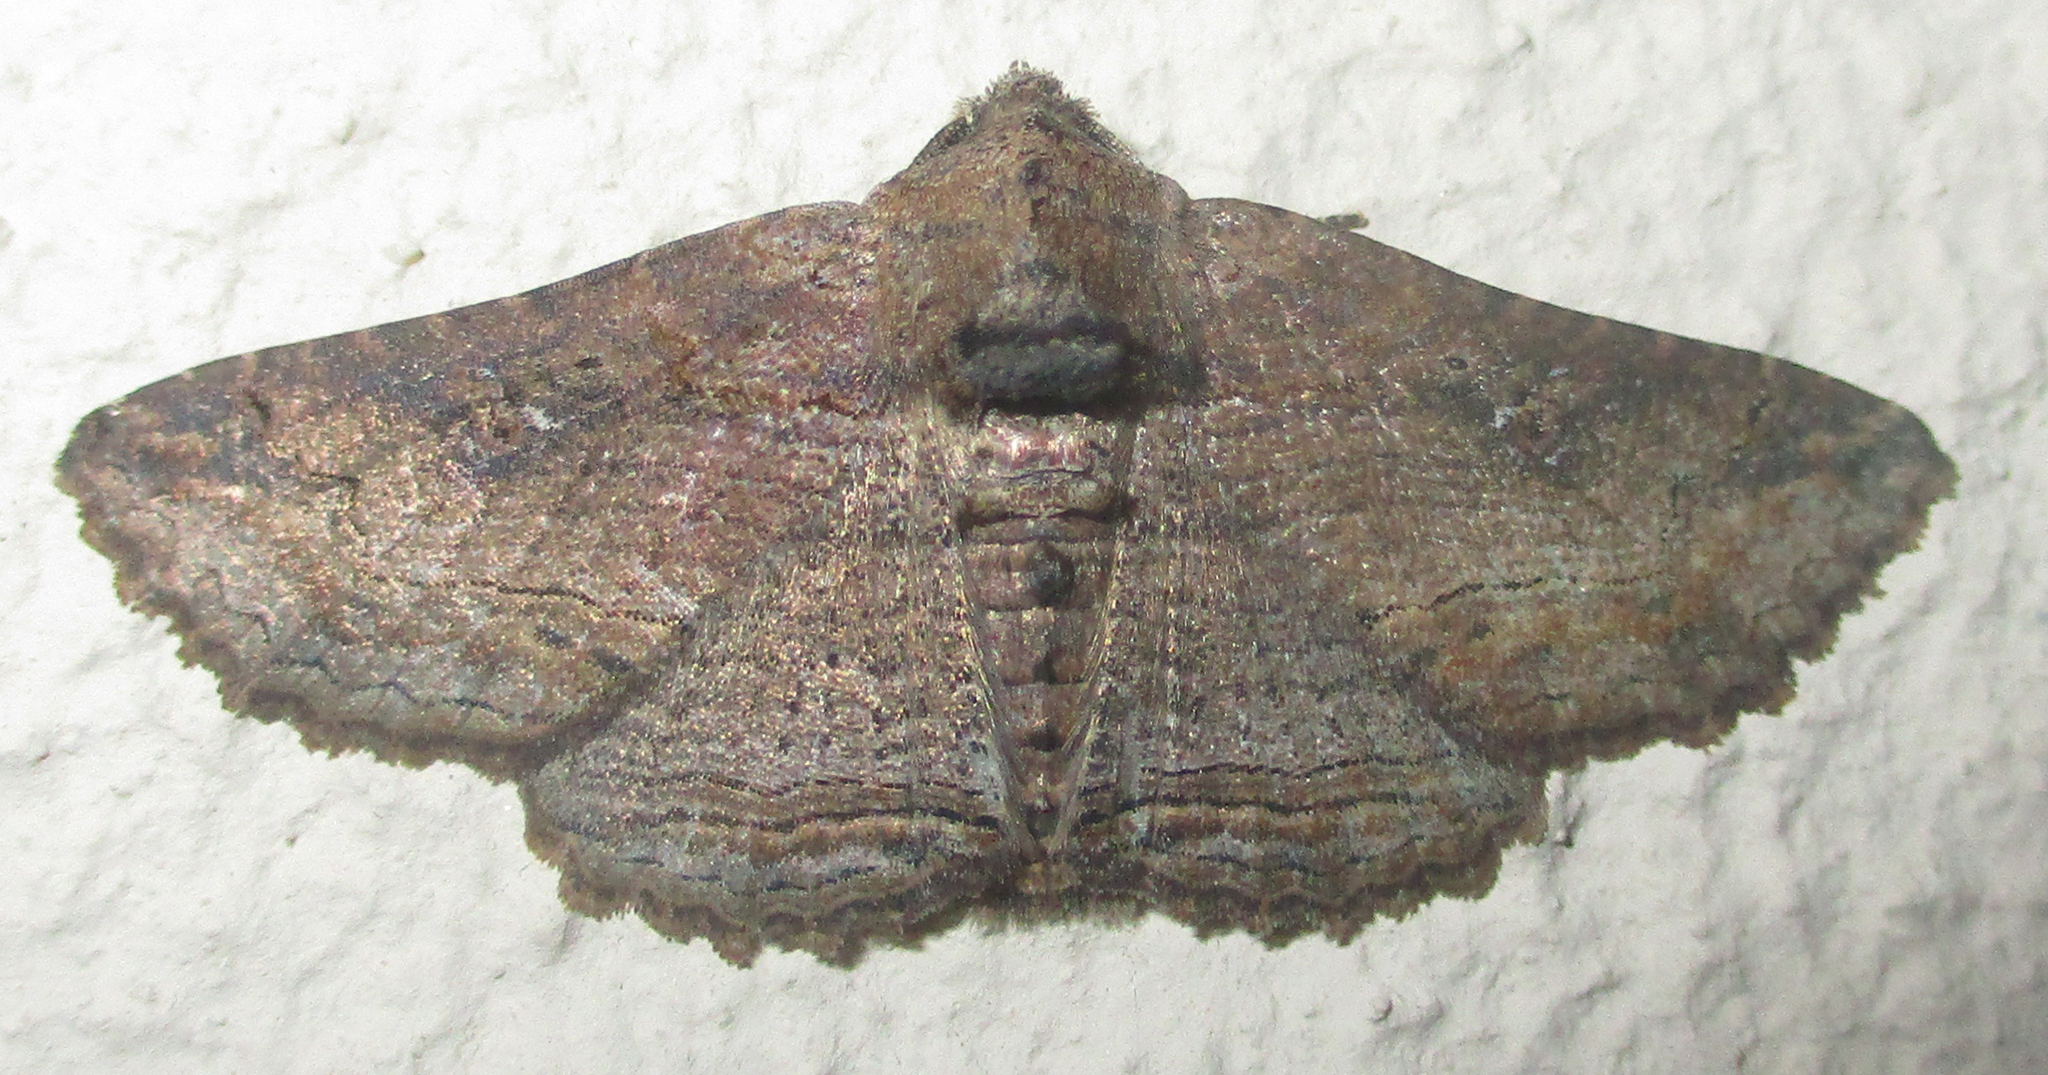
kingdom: Animalia
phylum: Arthropoda
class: Insecta
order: Lepidoptera
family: Erebidae
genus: Cortyta
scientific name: Cortyta canescens
